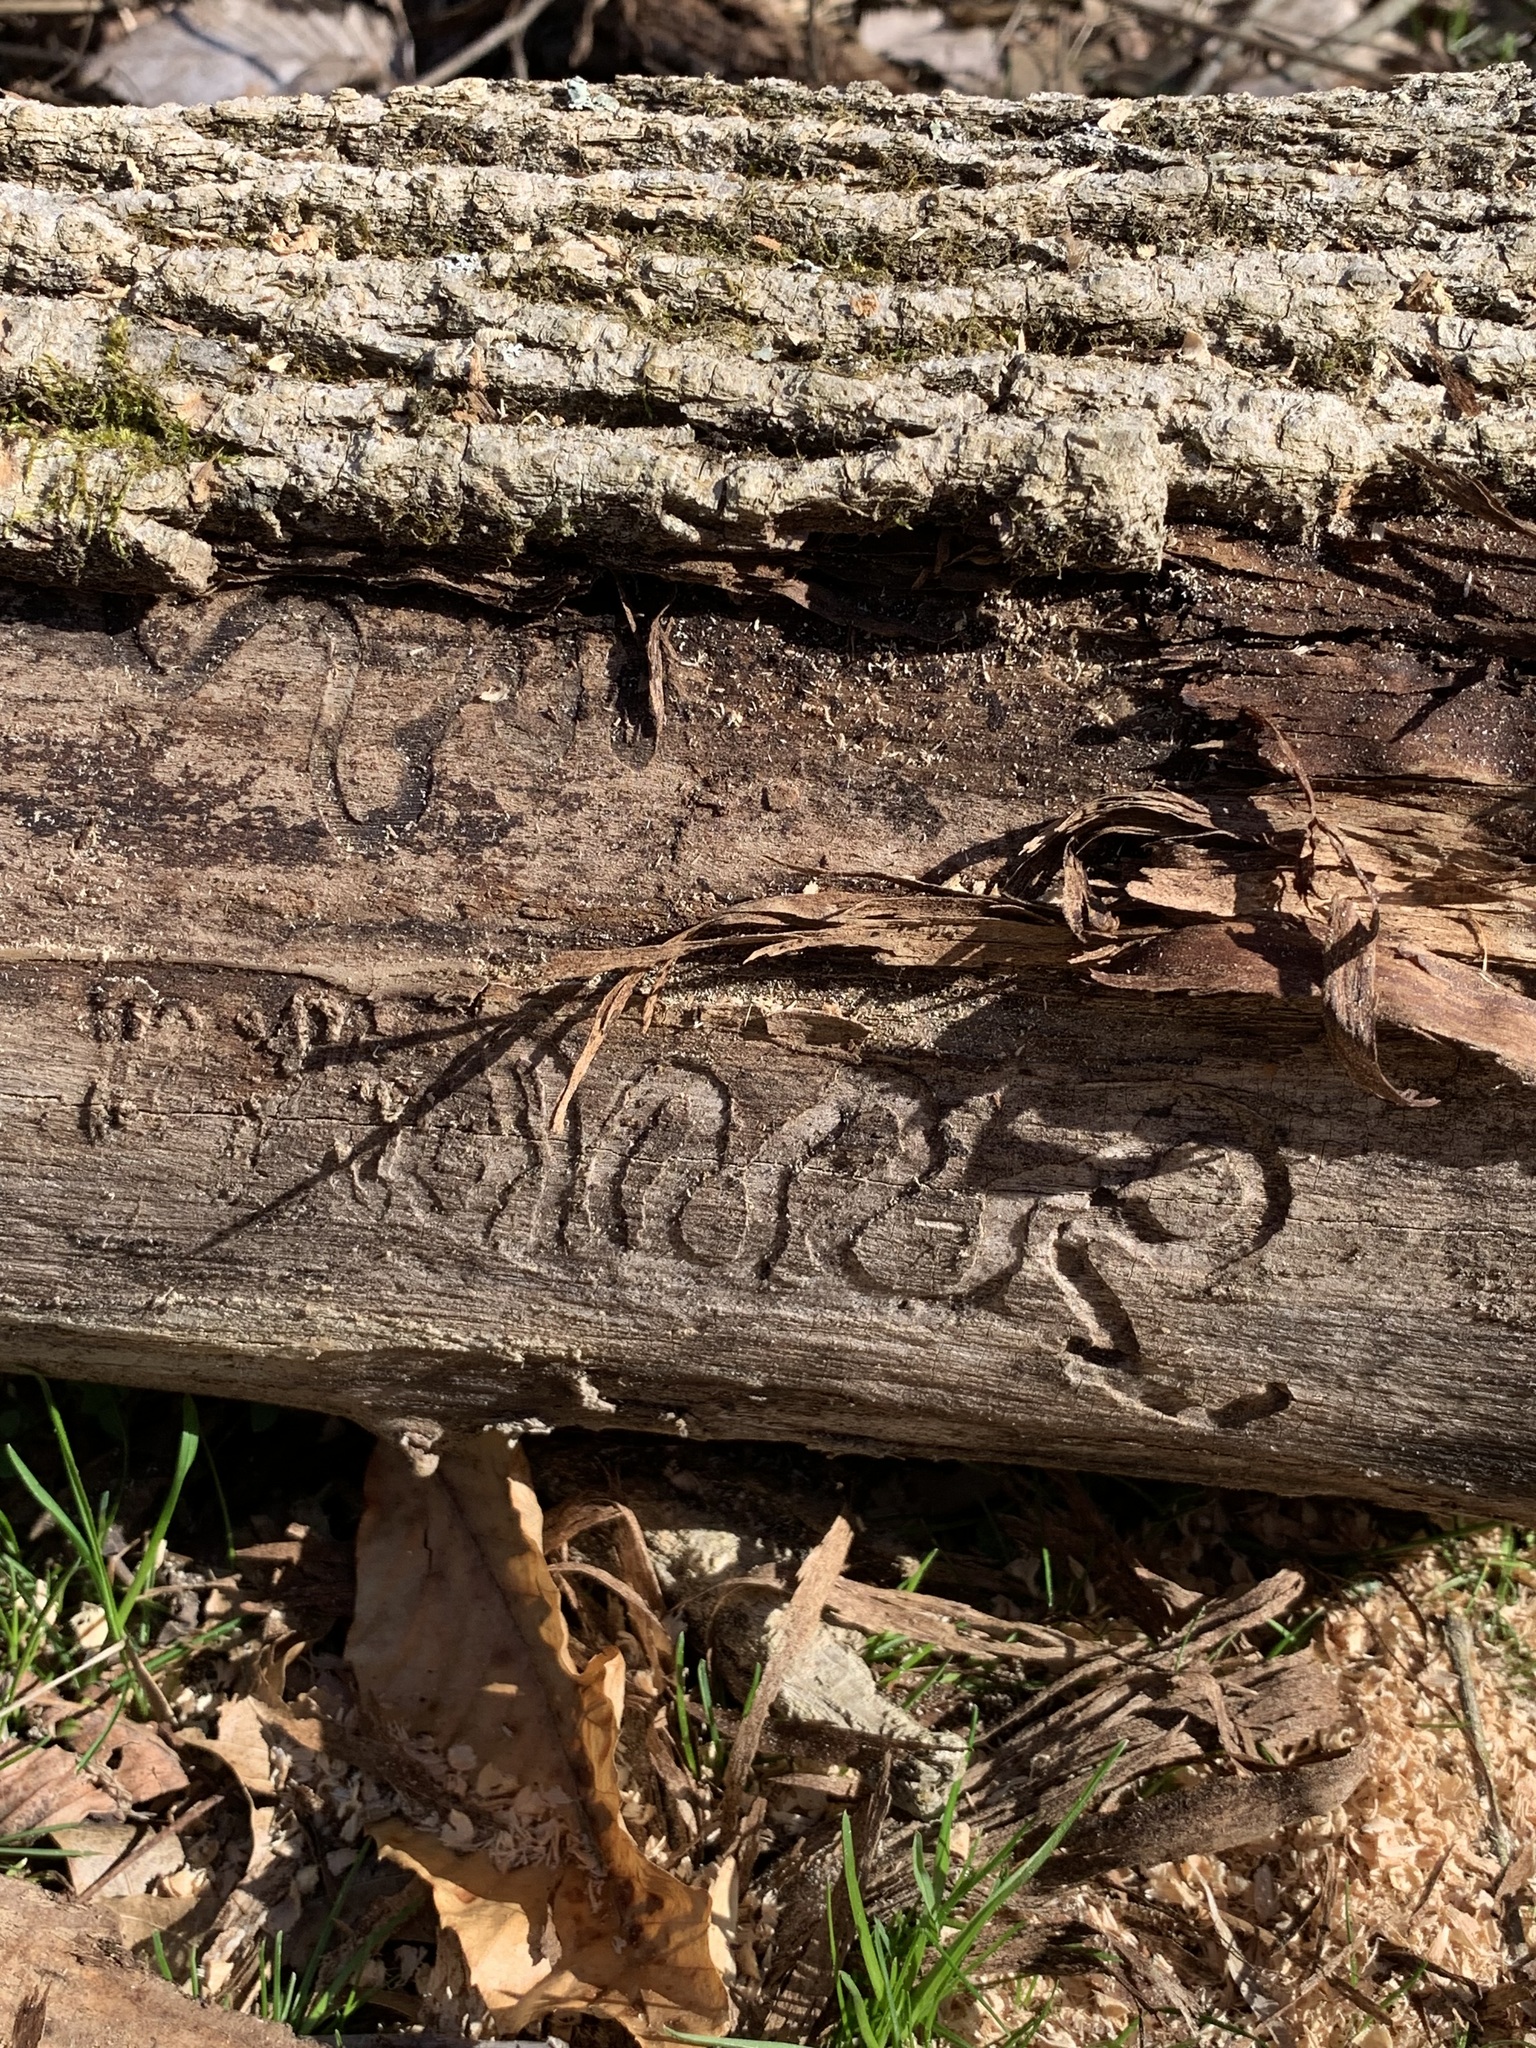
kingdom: Animalia
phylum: Arthropoda
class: Insecta
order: Coleoptera
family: Buprestidae
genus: Agrilus
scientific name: Agrilus planipennis
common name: Emerald ash borer
